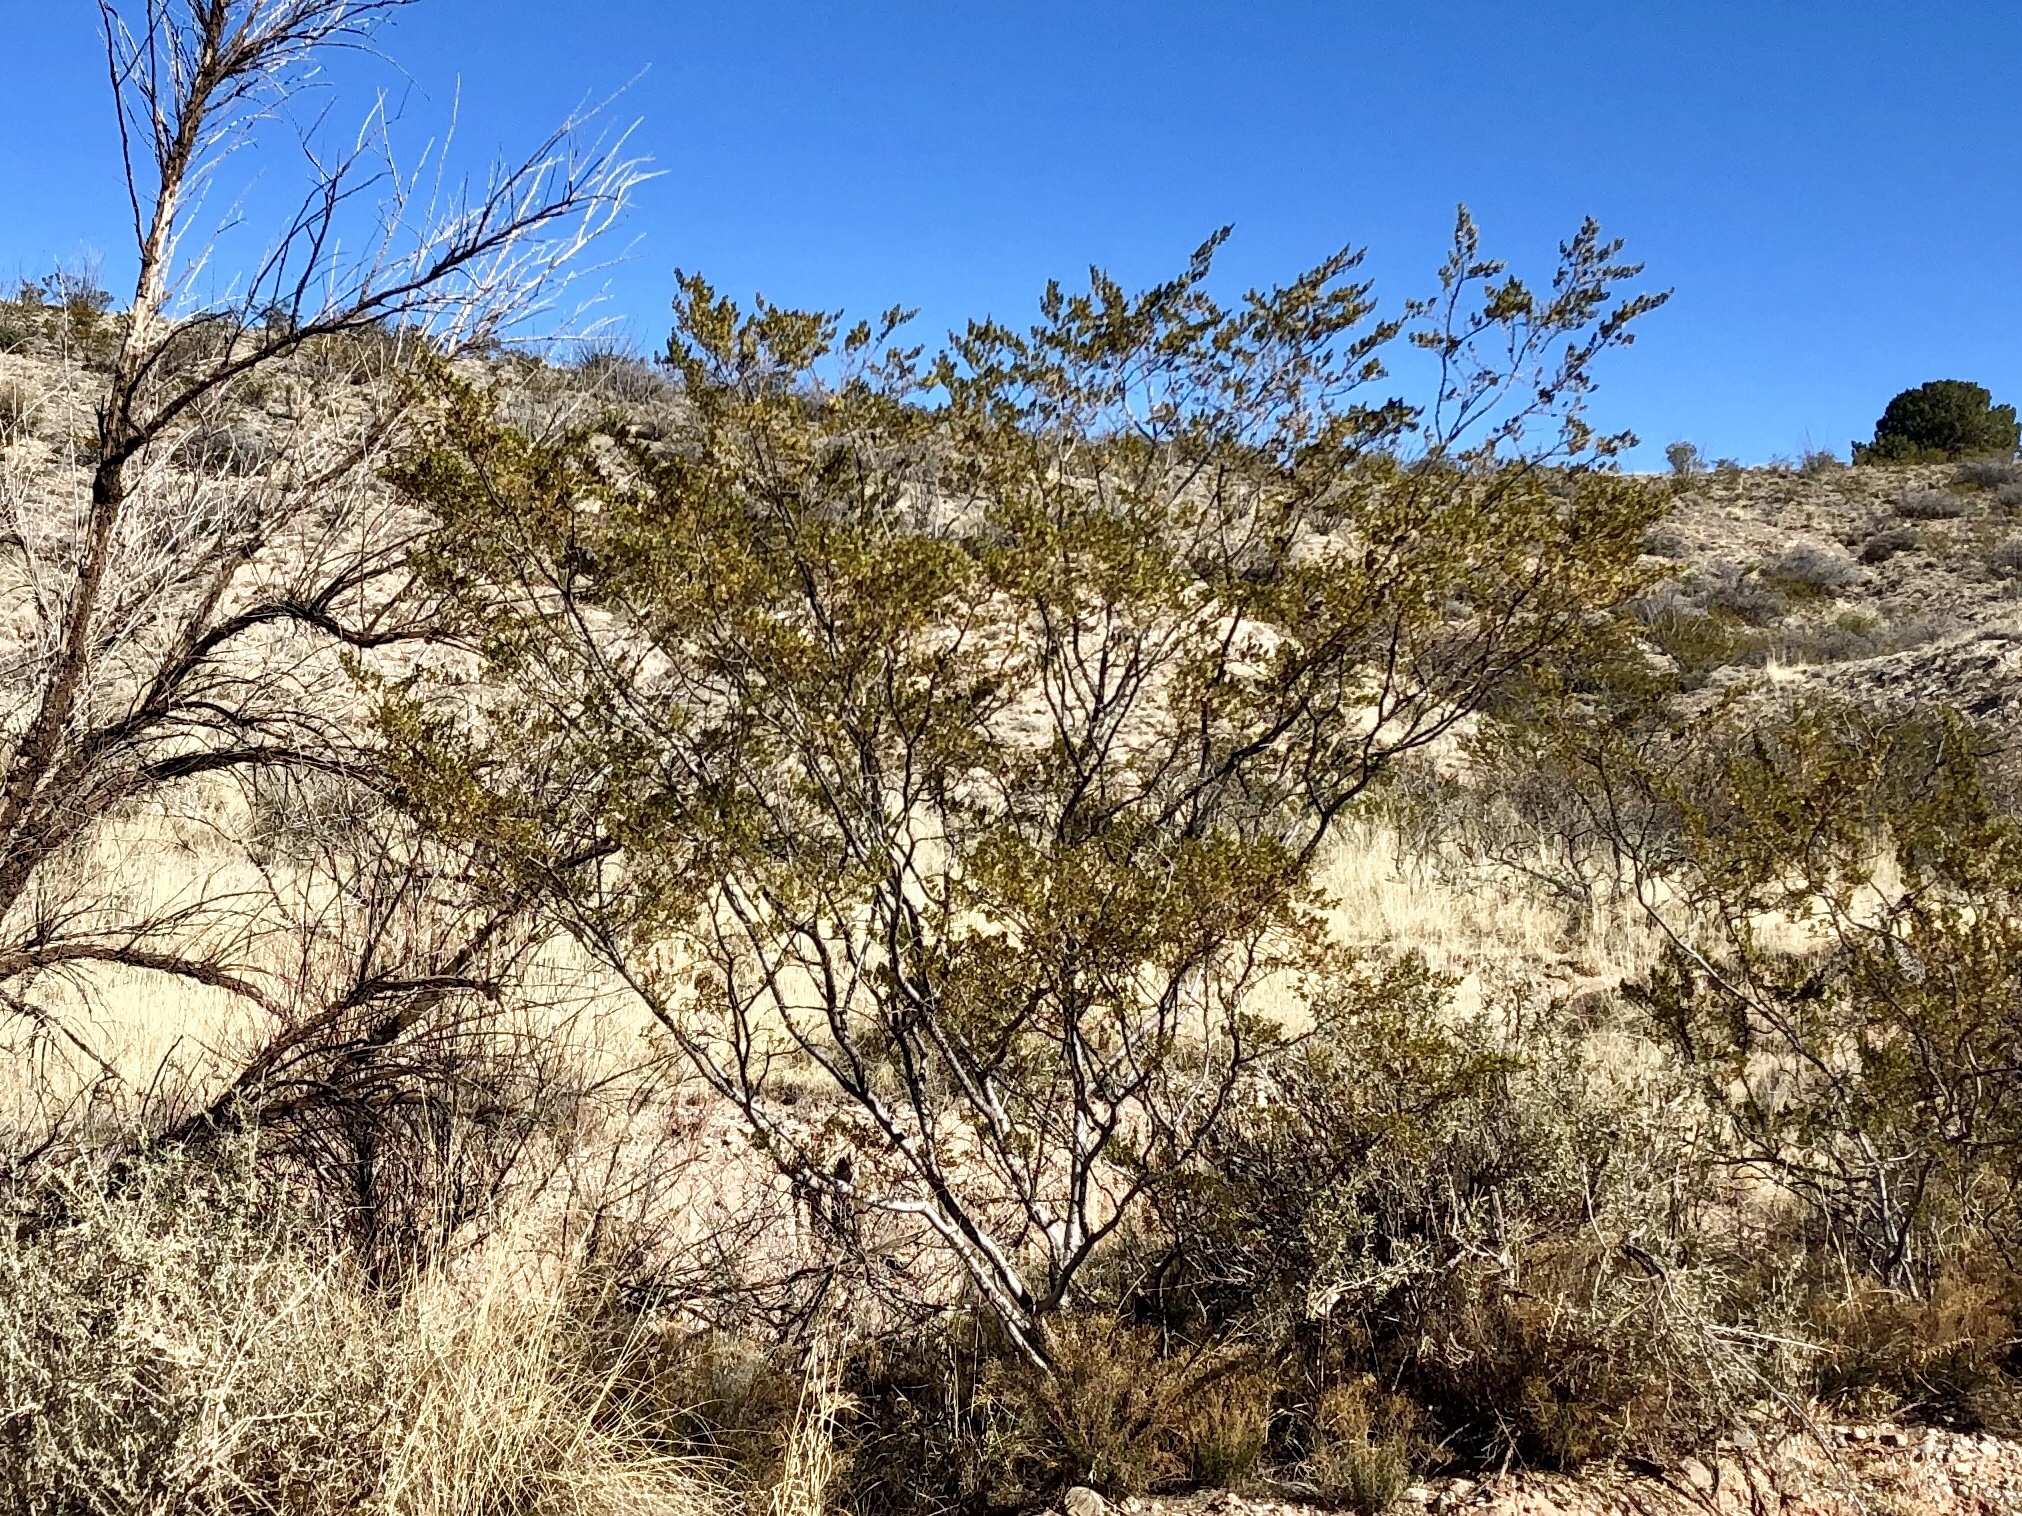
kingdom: Plantae
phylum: Tracheophyta
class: Magnoliopsida
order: Zygophyllales
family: Zygophyllaceae
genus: Larrea
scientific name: Larrea tridentata
